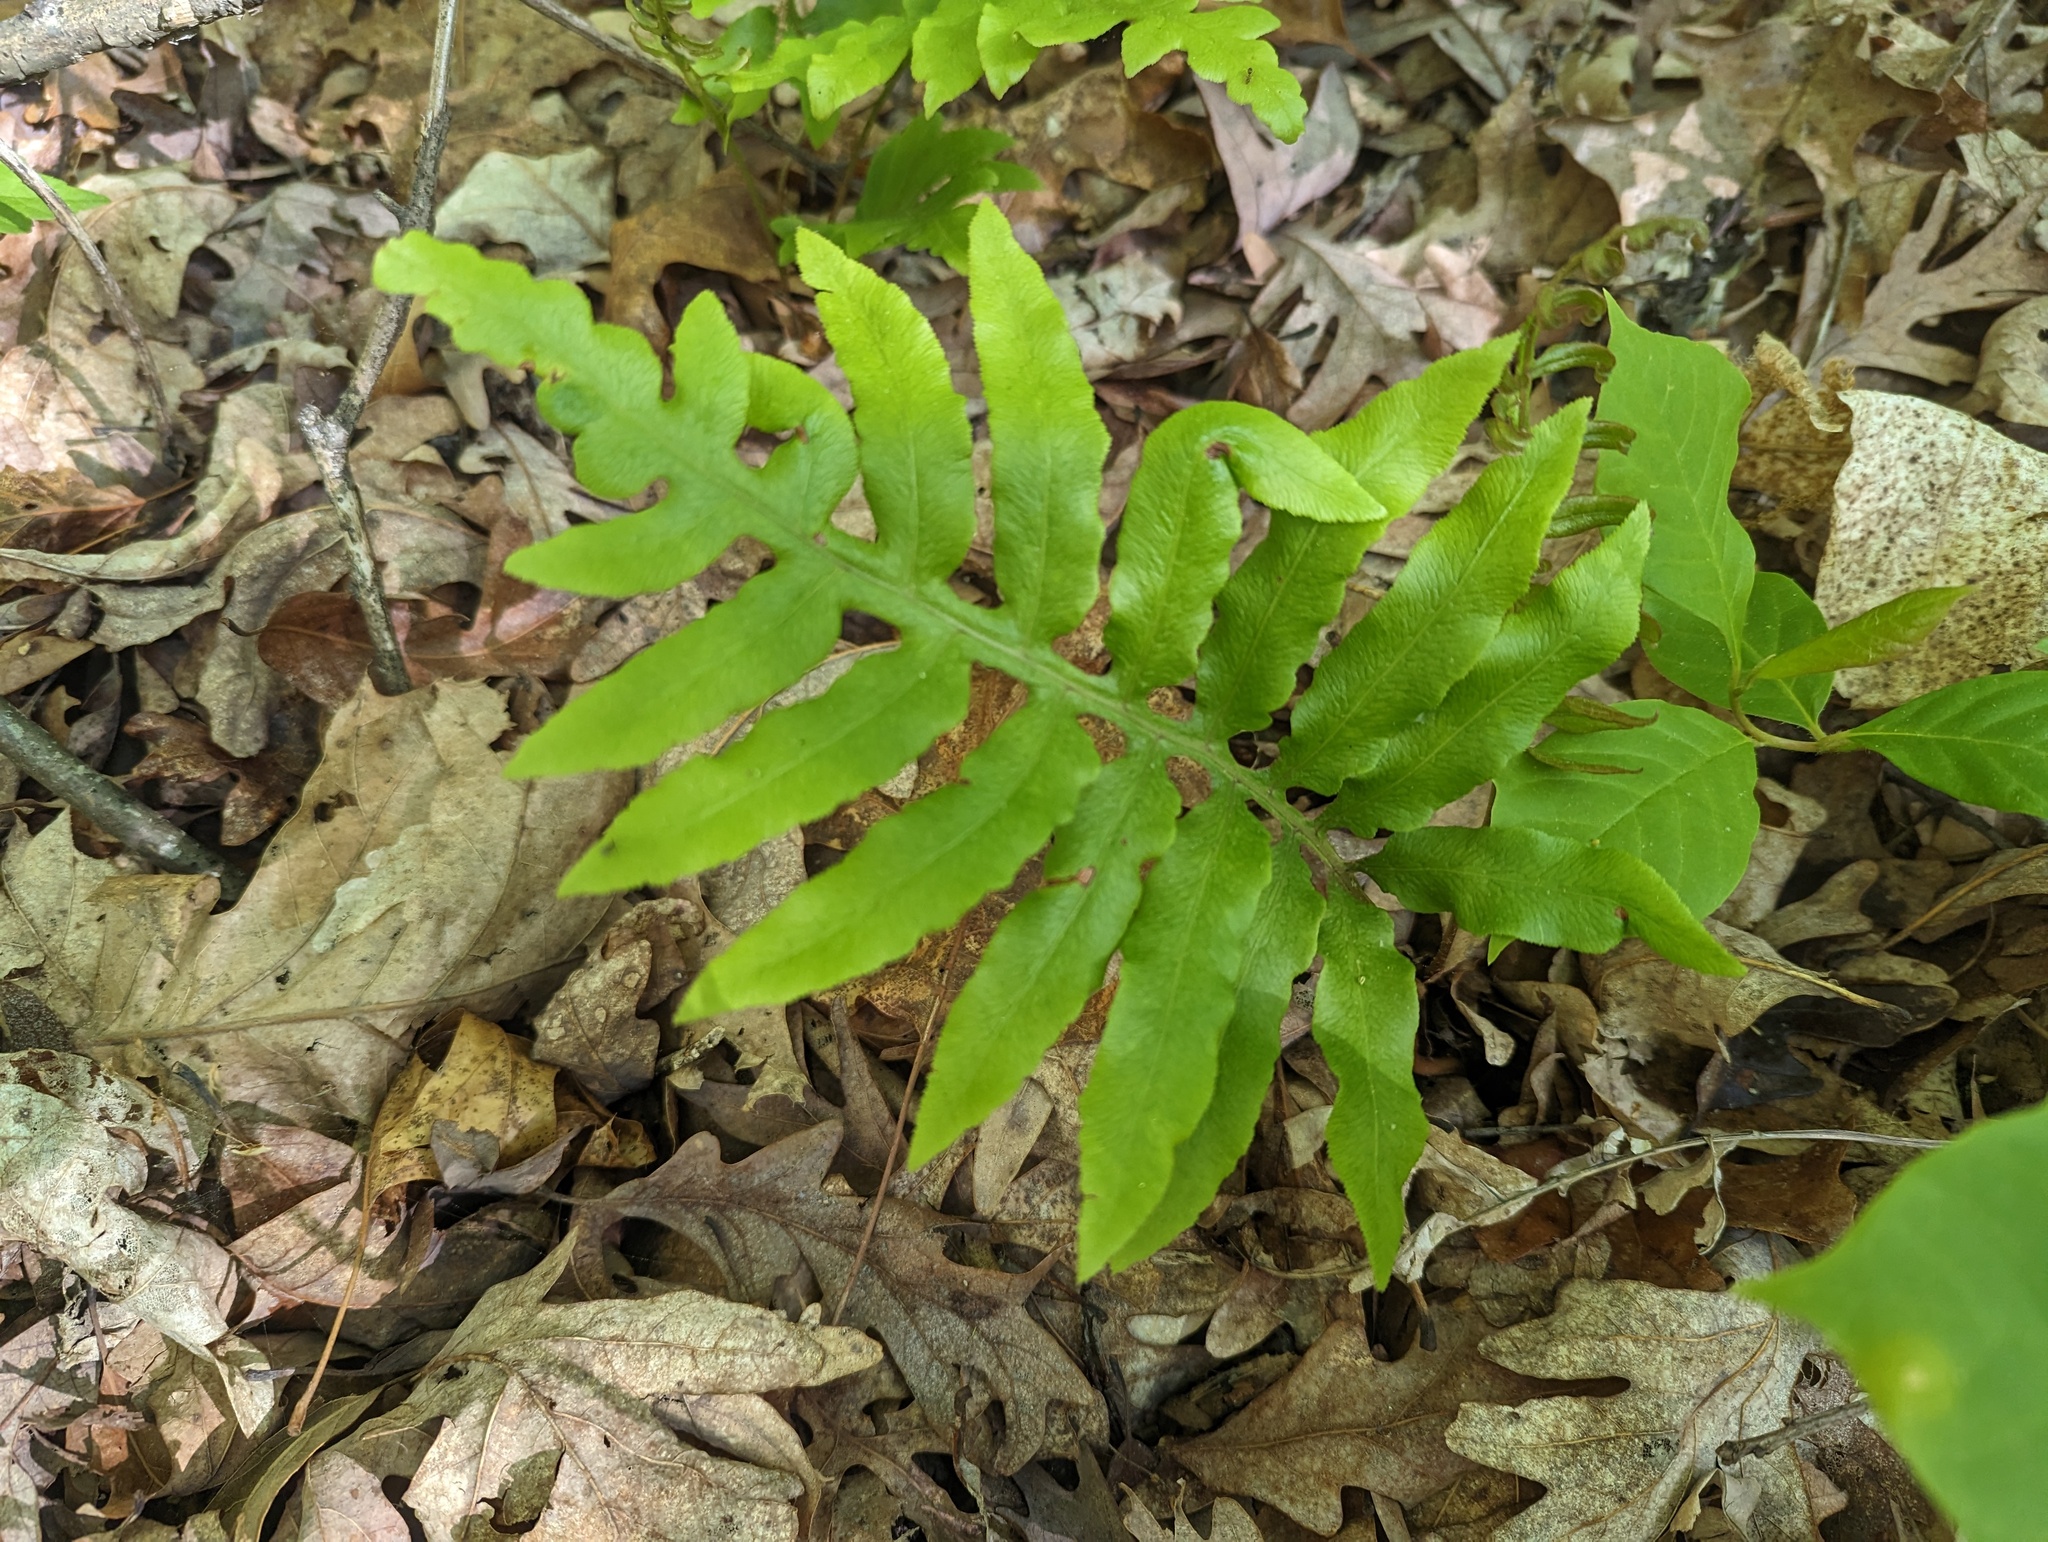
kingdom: Plantae
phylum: Tracheophyta
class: Polypodiopsida
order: Polypodiales
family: Blechnaceae
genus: Lorinseria
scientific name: Lorinseria areolata
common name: Dwarf chain fern
